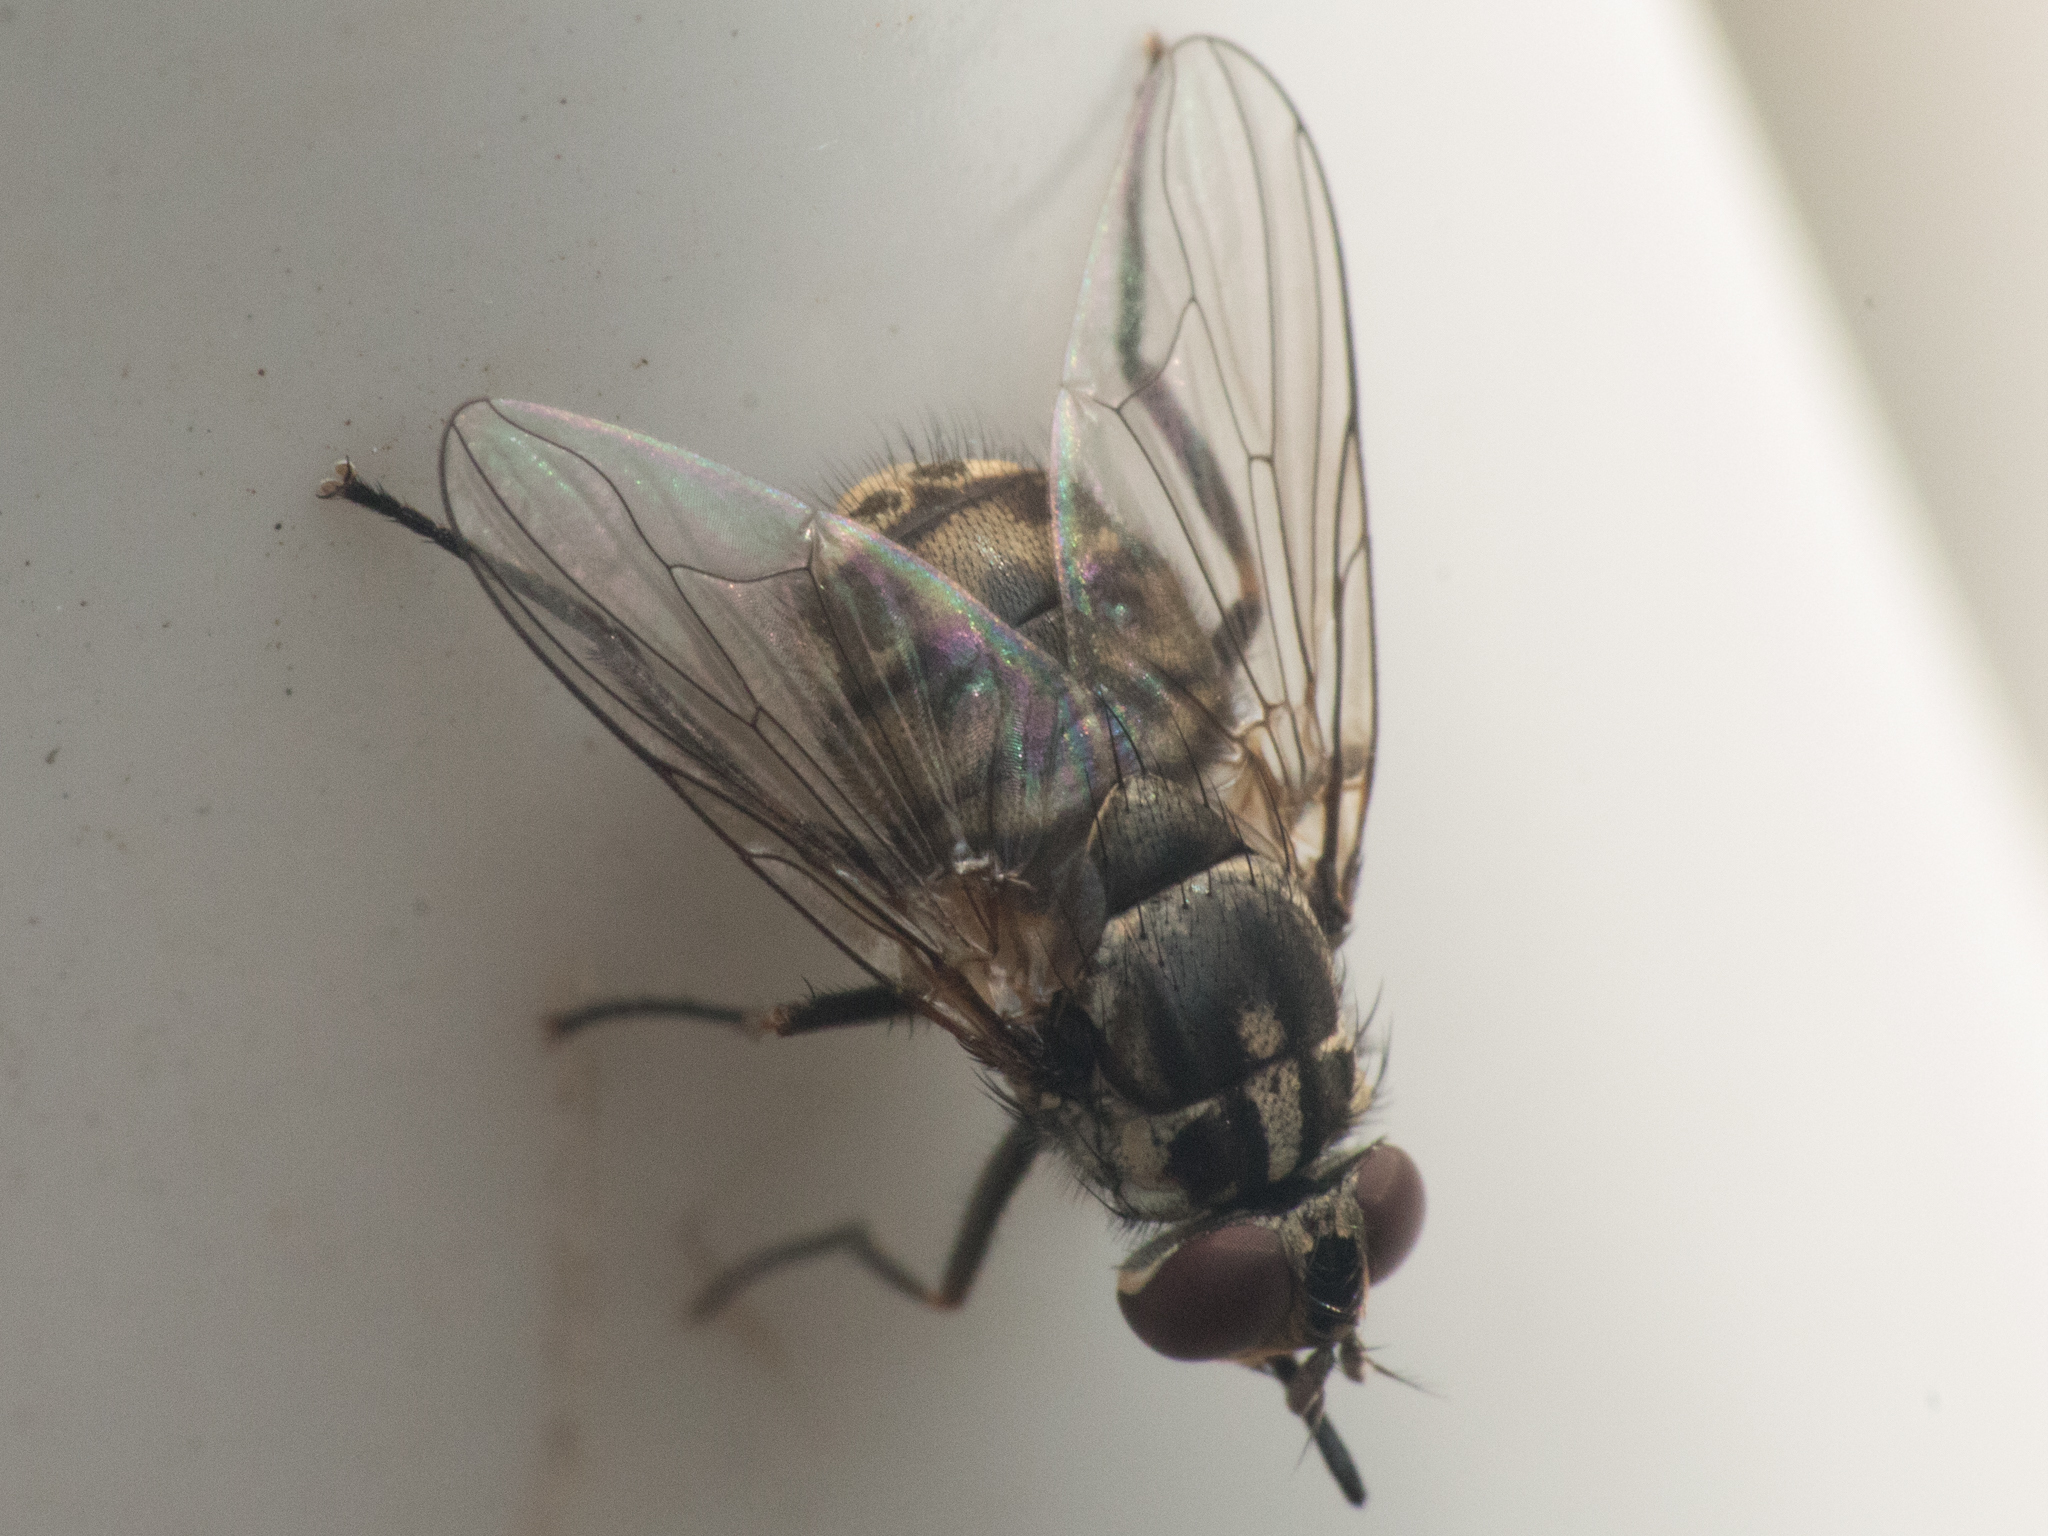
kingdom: Animalia
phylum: Arthropoda
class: Insecta
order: Diptera
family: Muscidae
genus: Stomoxys
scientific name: Stomoxys calcitrans
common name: Stable fly
